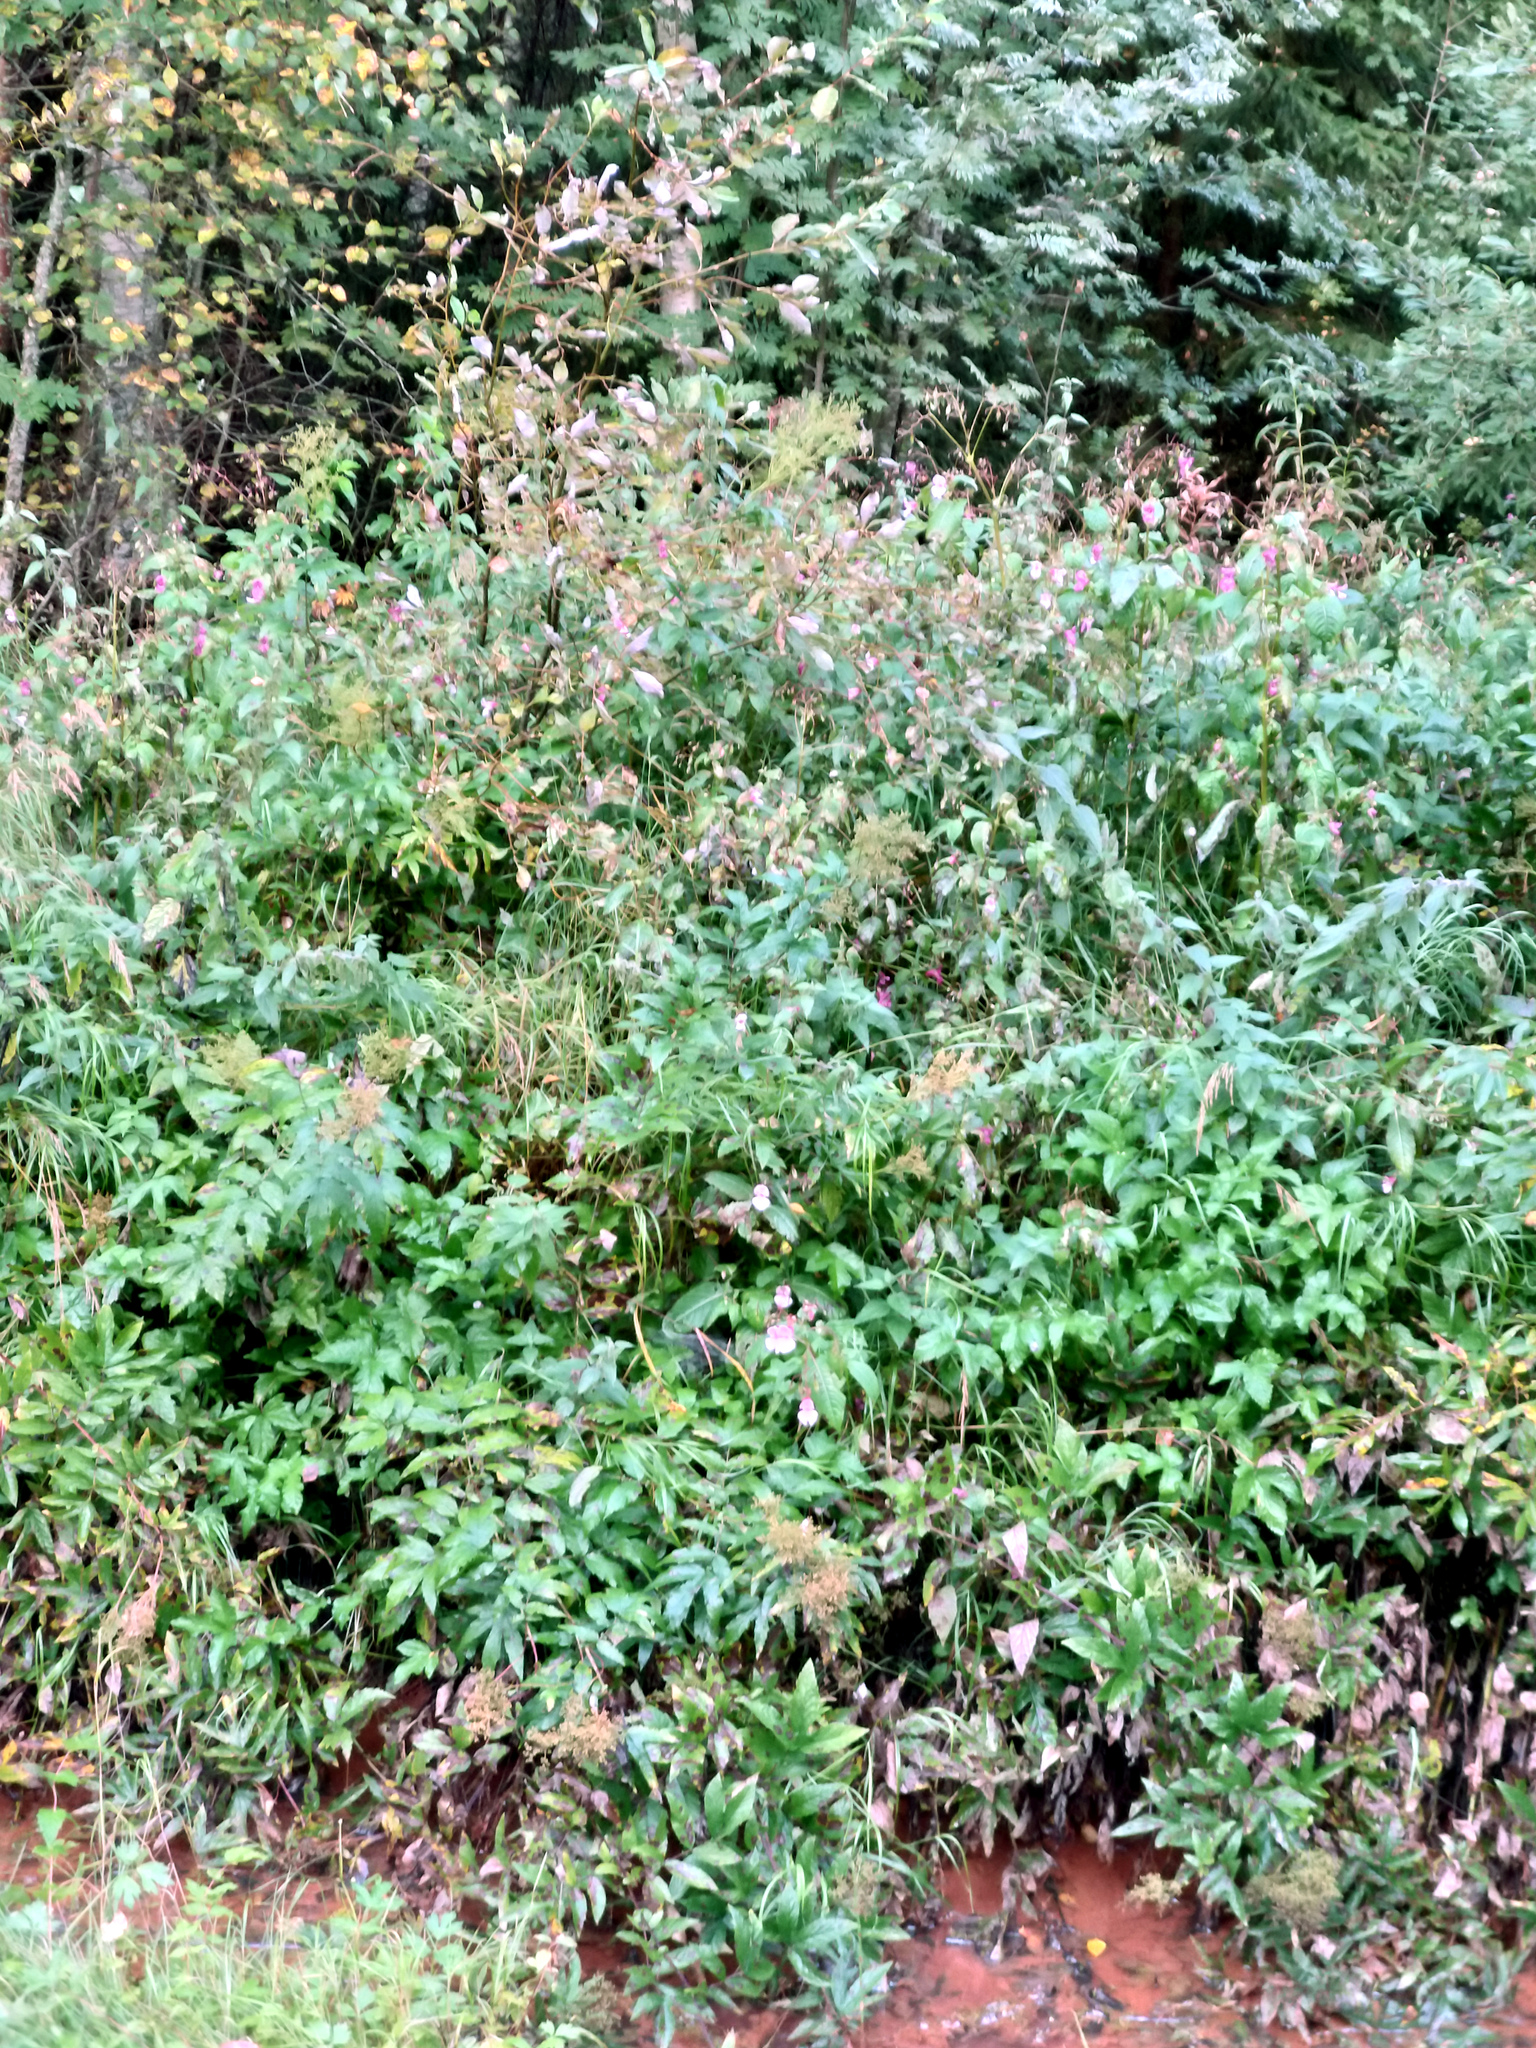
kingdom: Plantae
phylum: Tracheophyta
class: Magnoliopsida
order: Ericales
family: Balsaminaceae
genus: Impatiens
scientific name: Impatiens glandulifera
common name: Himalayan balsam
